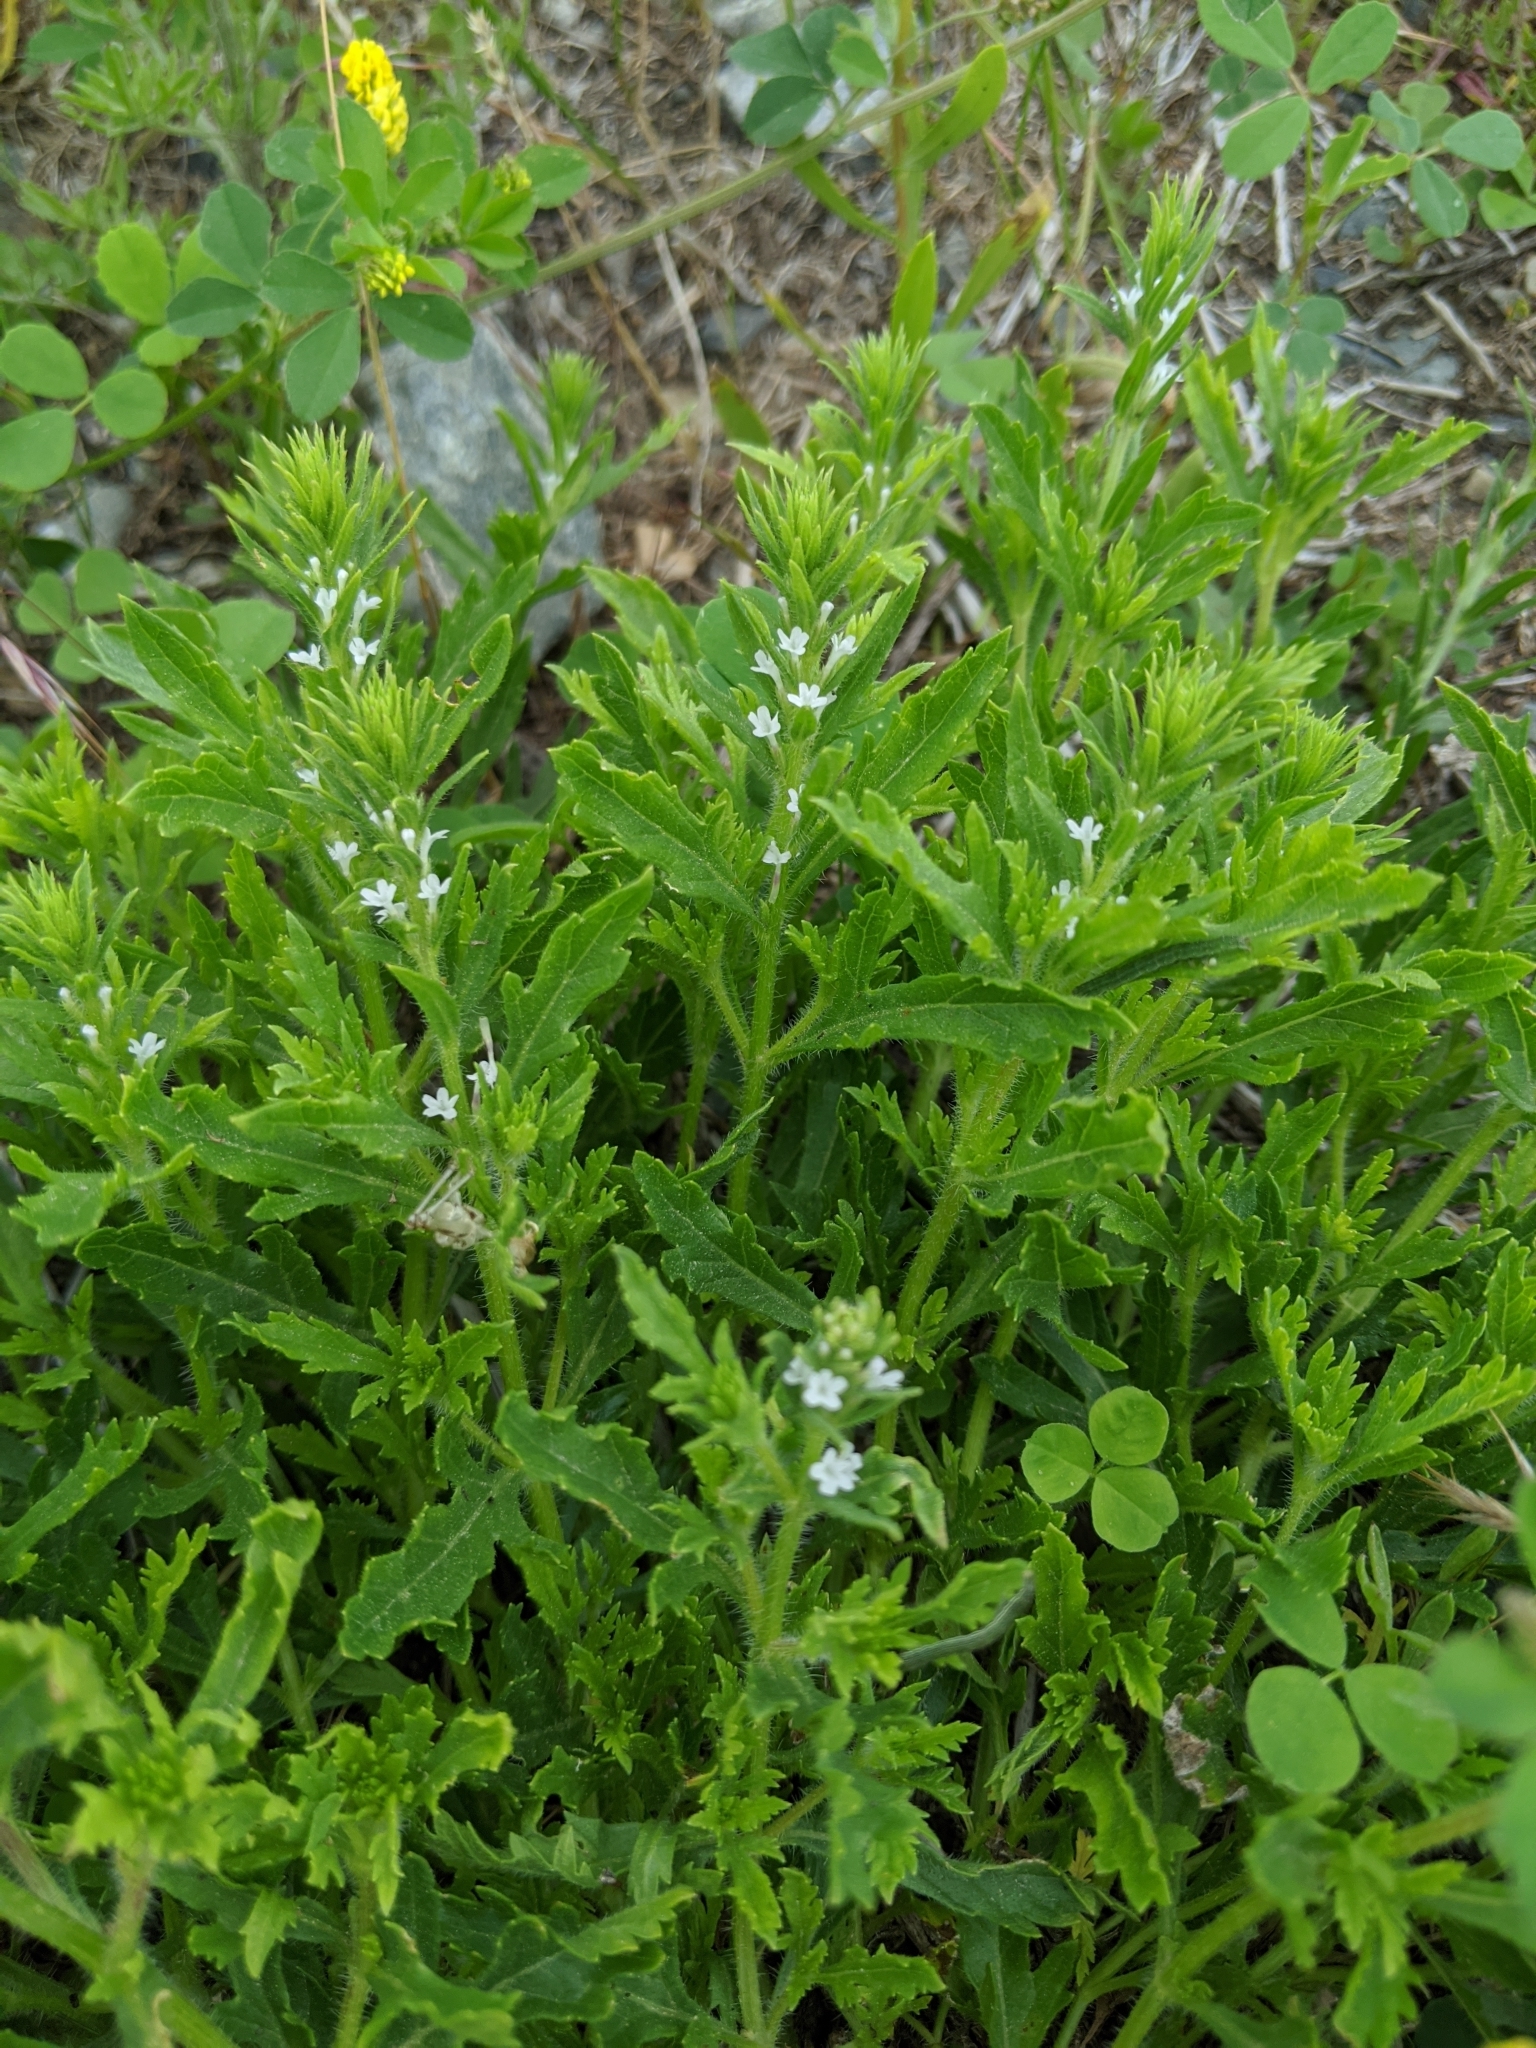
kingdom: Plantae
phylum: Tracheophyta
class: Magnoliopsida
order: Lamiales
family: Verbenaceae
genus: Verbena
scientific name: Verbena bracteata
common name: Bracted vervain
